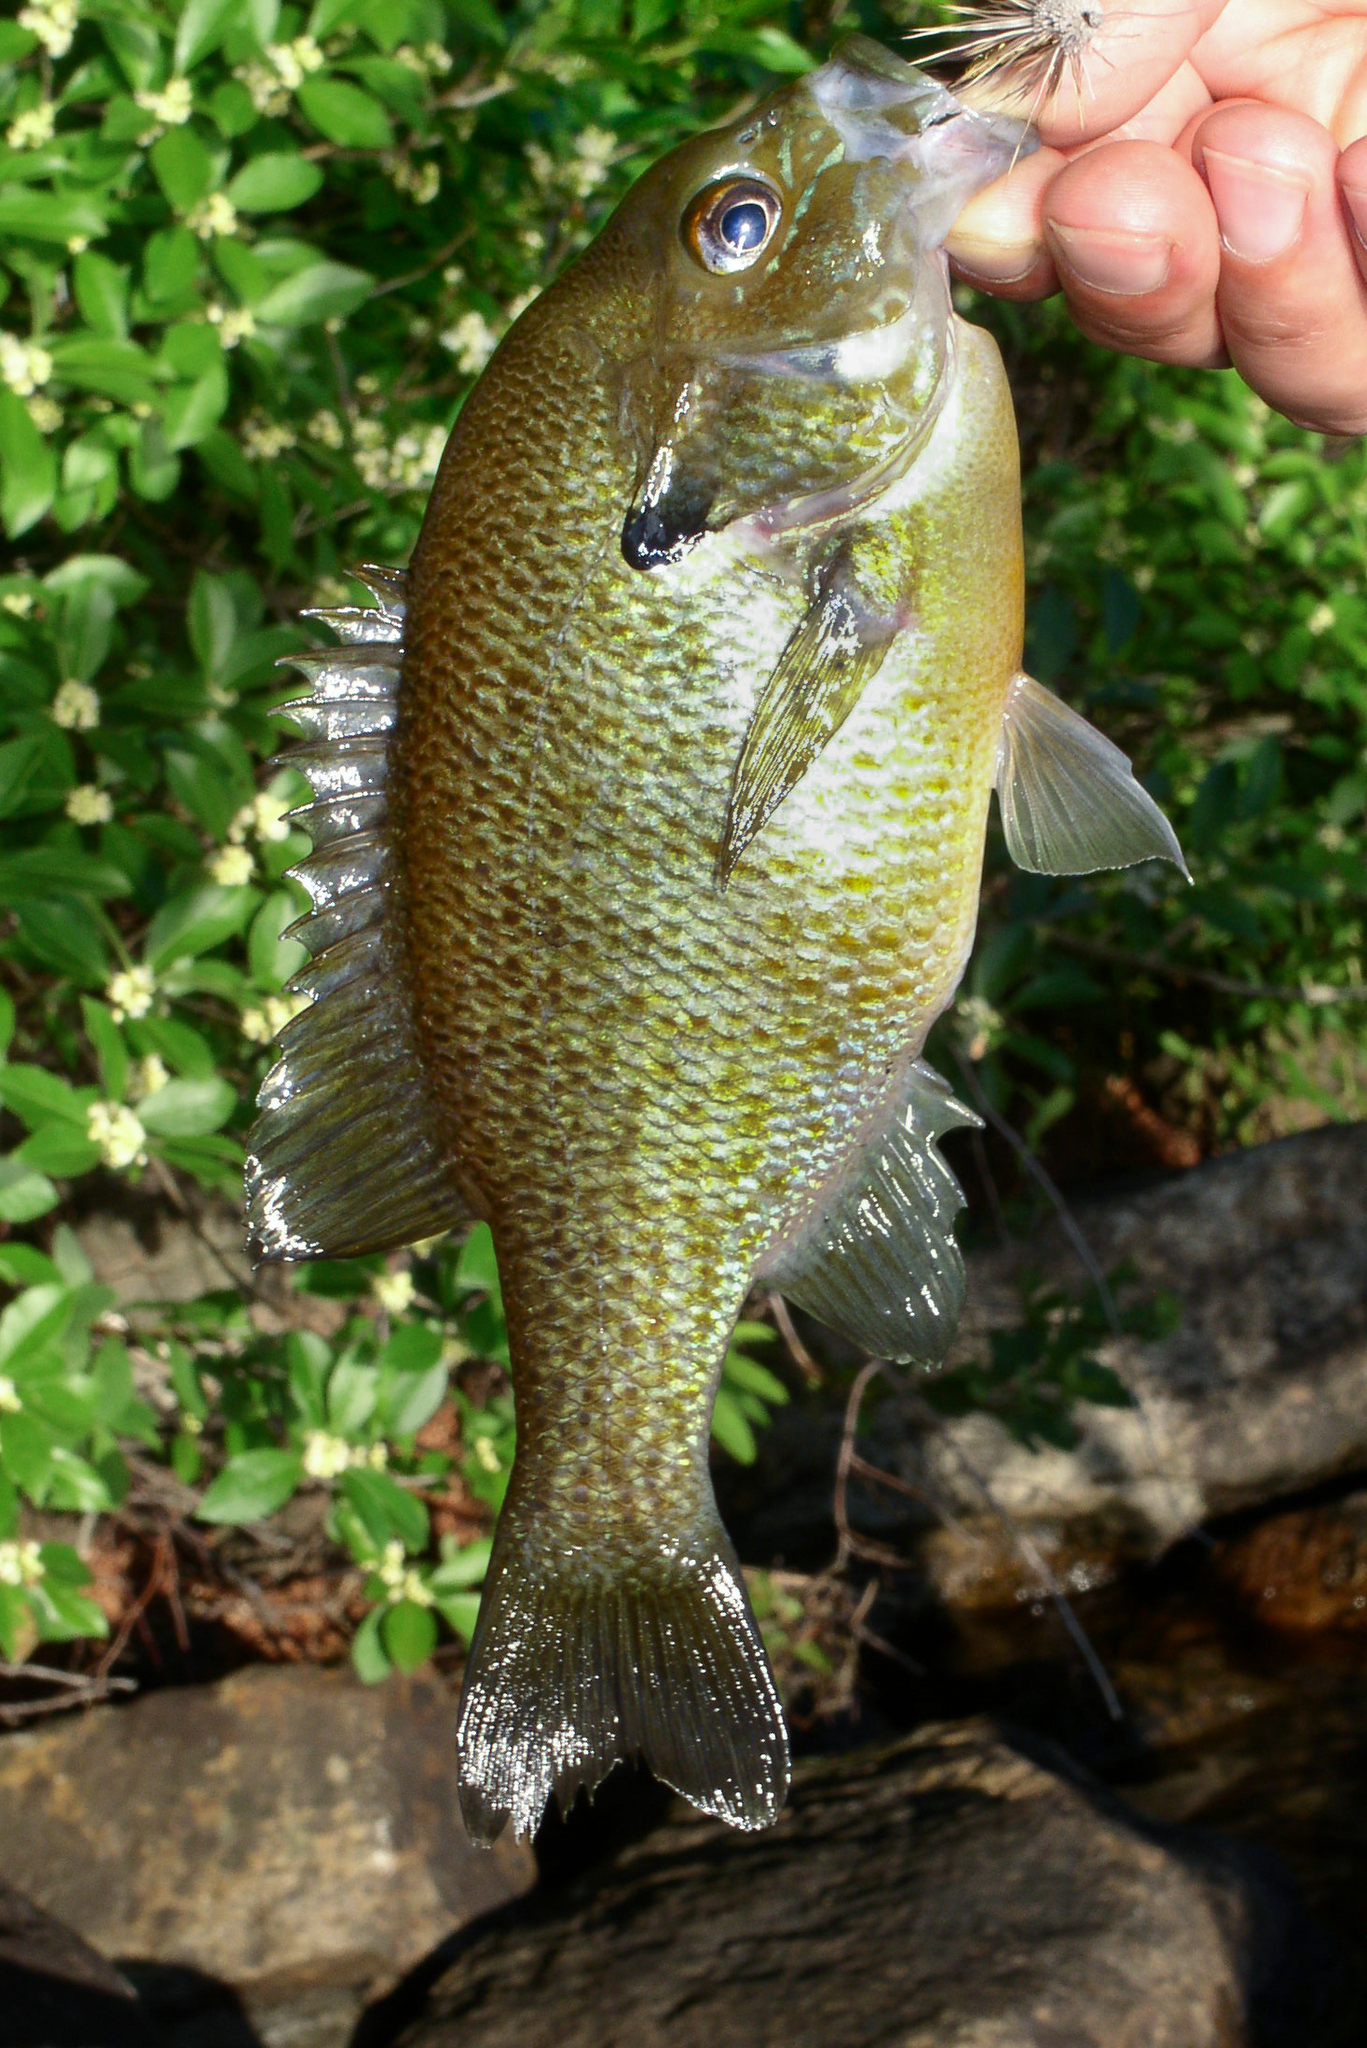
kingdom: Animalia
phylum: Chordata
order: Perciformes
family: Centrarchidae
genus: Lepomis
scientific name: Lepomis auritus
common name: Redbreast sunfish
